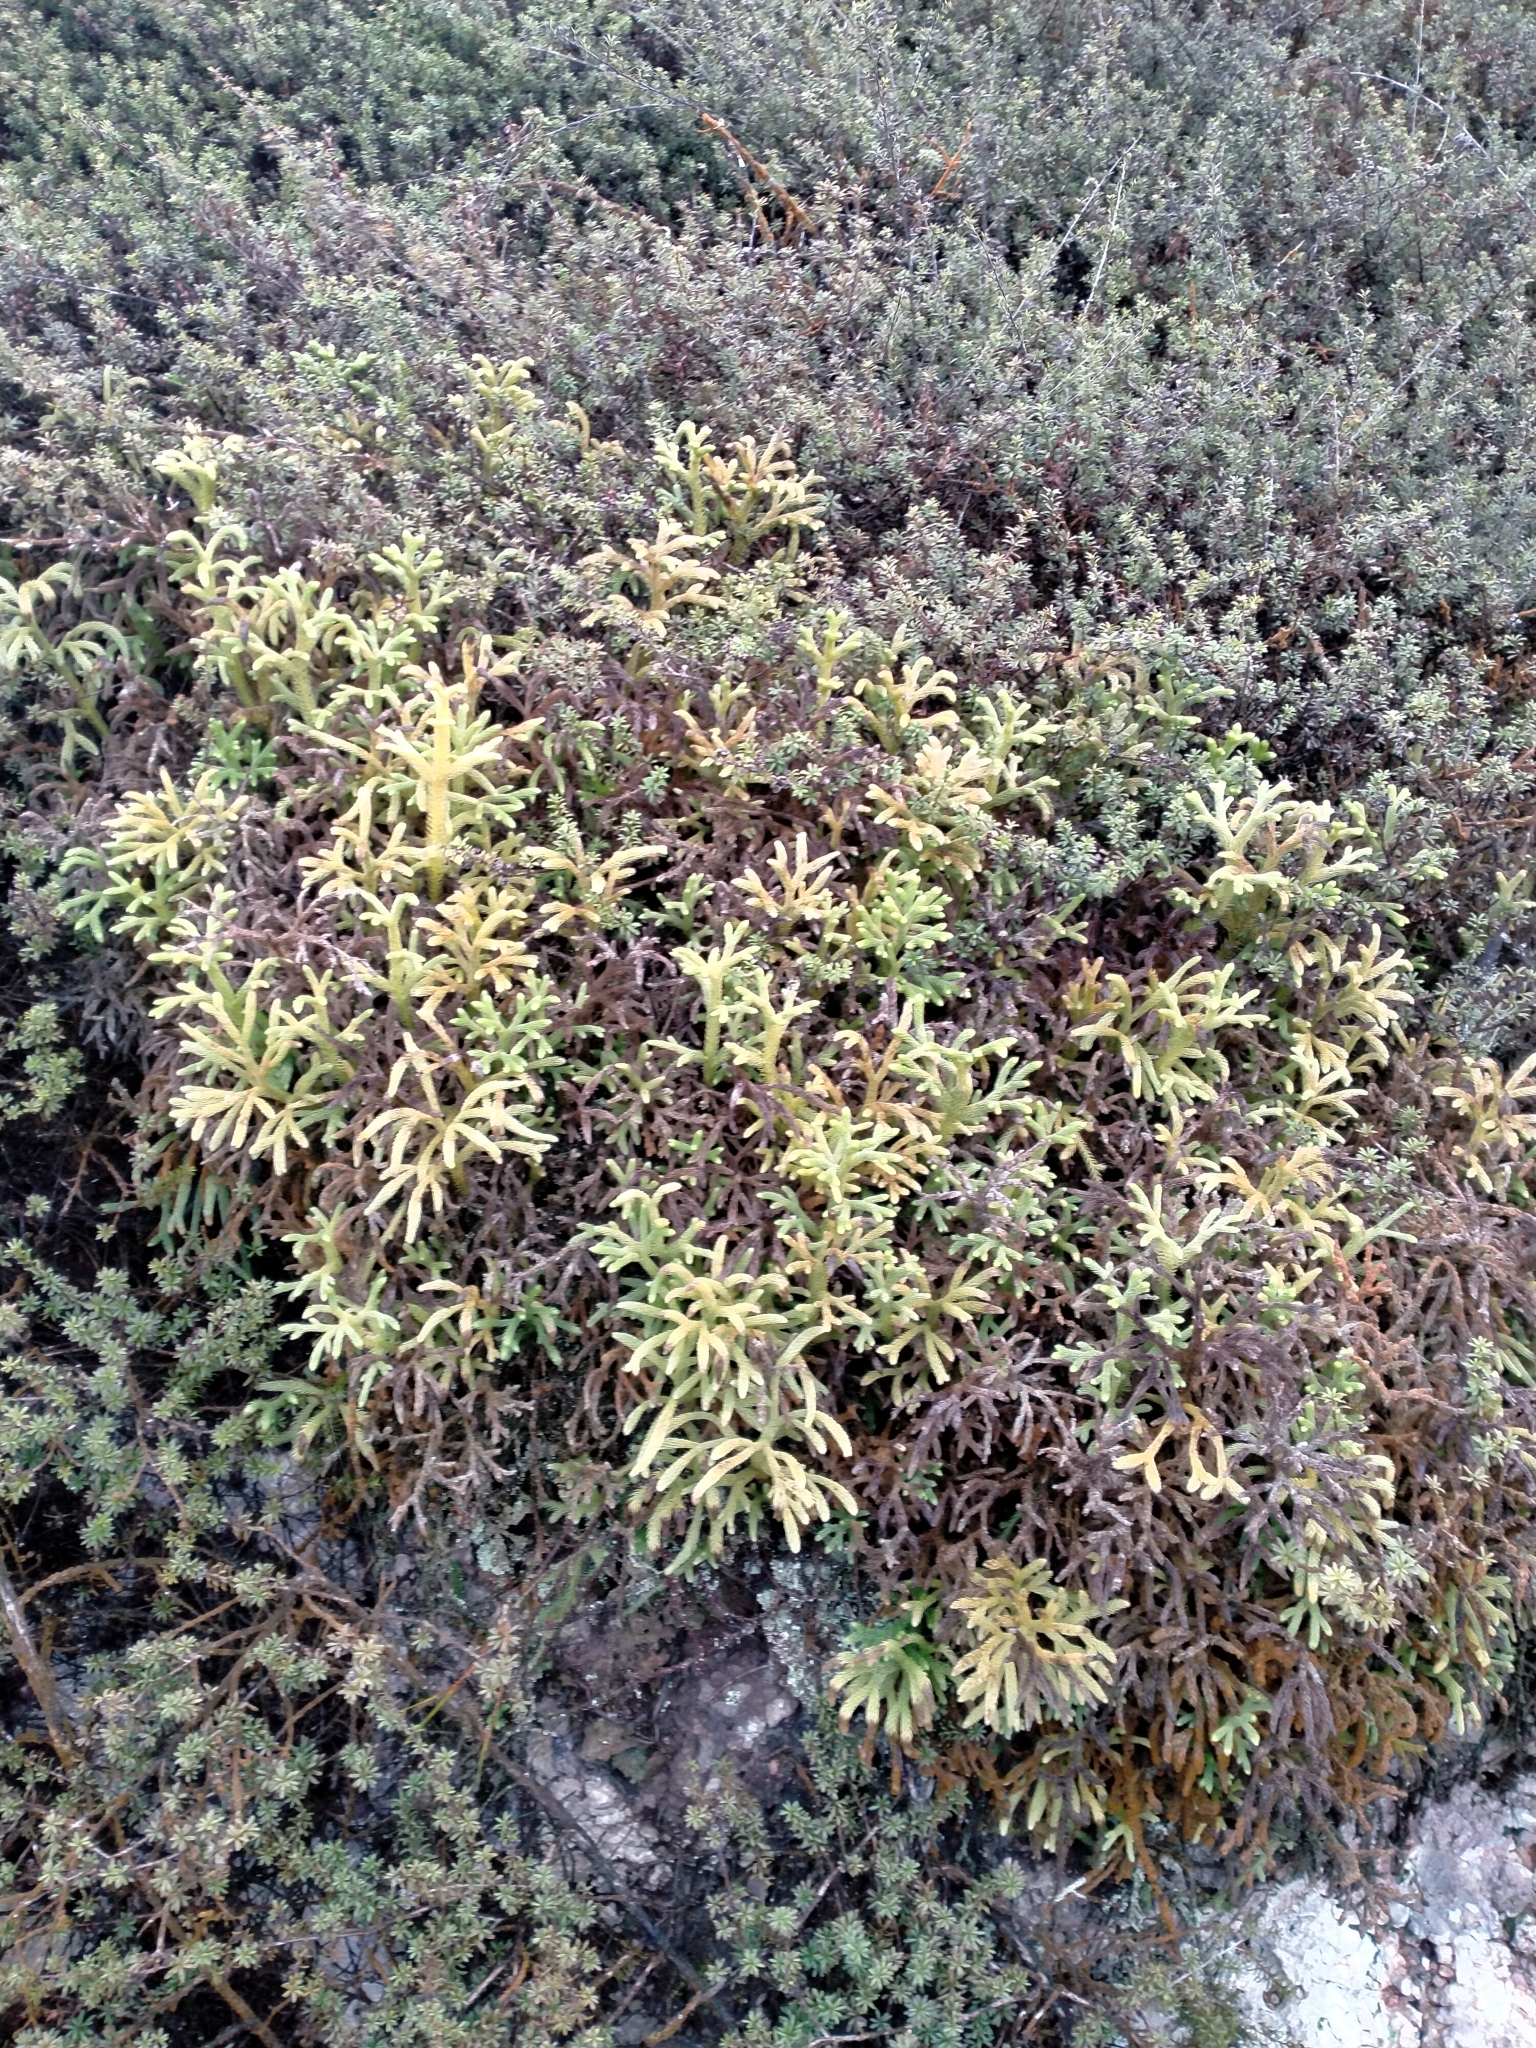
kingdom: Plantae
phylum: Tracheophyta
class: Lycopodiopsida
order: Lycopodiales
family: Lycopodiaceae
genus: Palhinhaea
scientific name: Palhinhaea cernua
